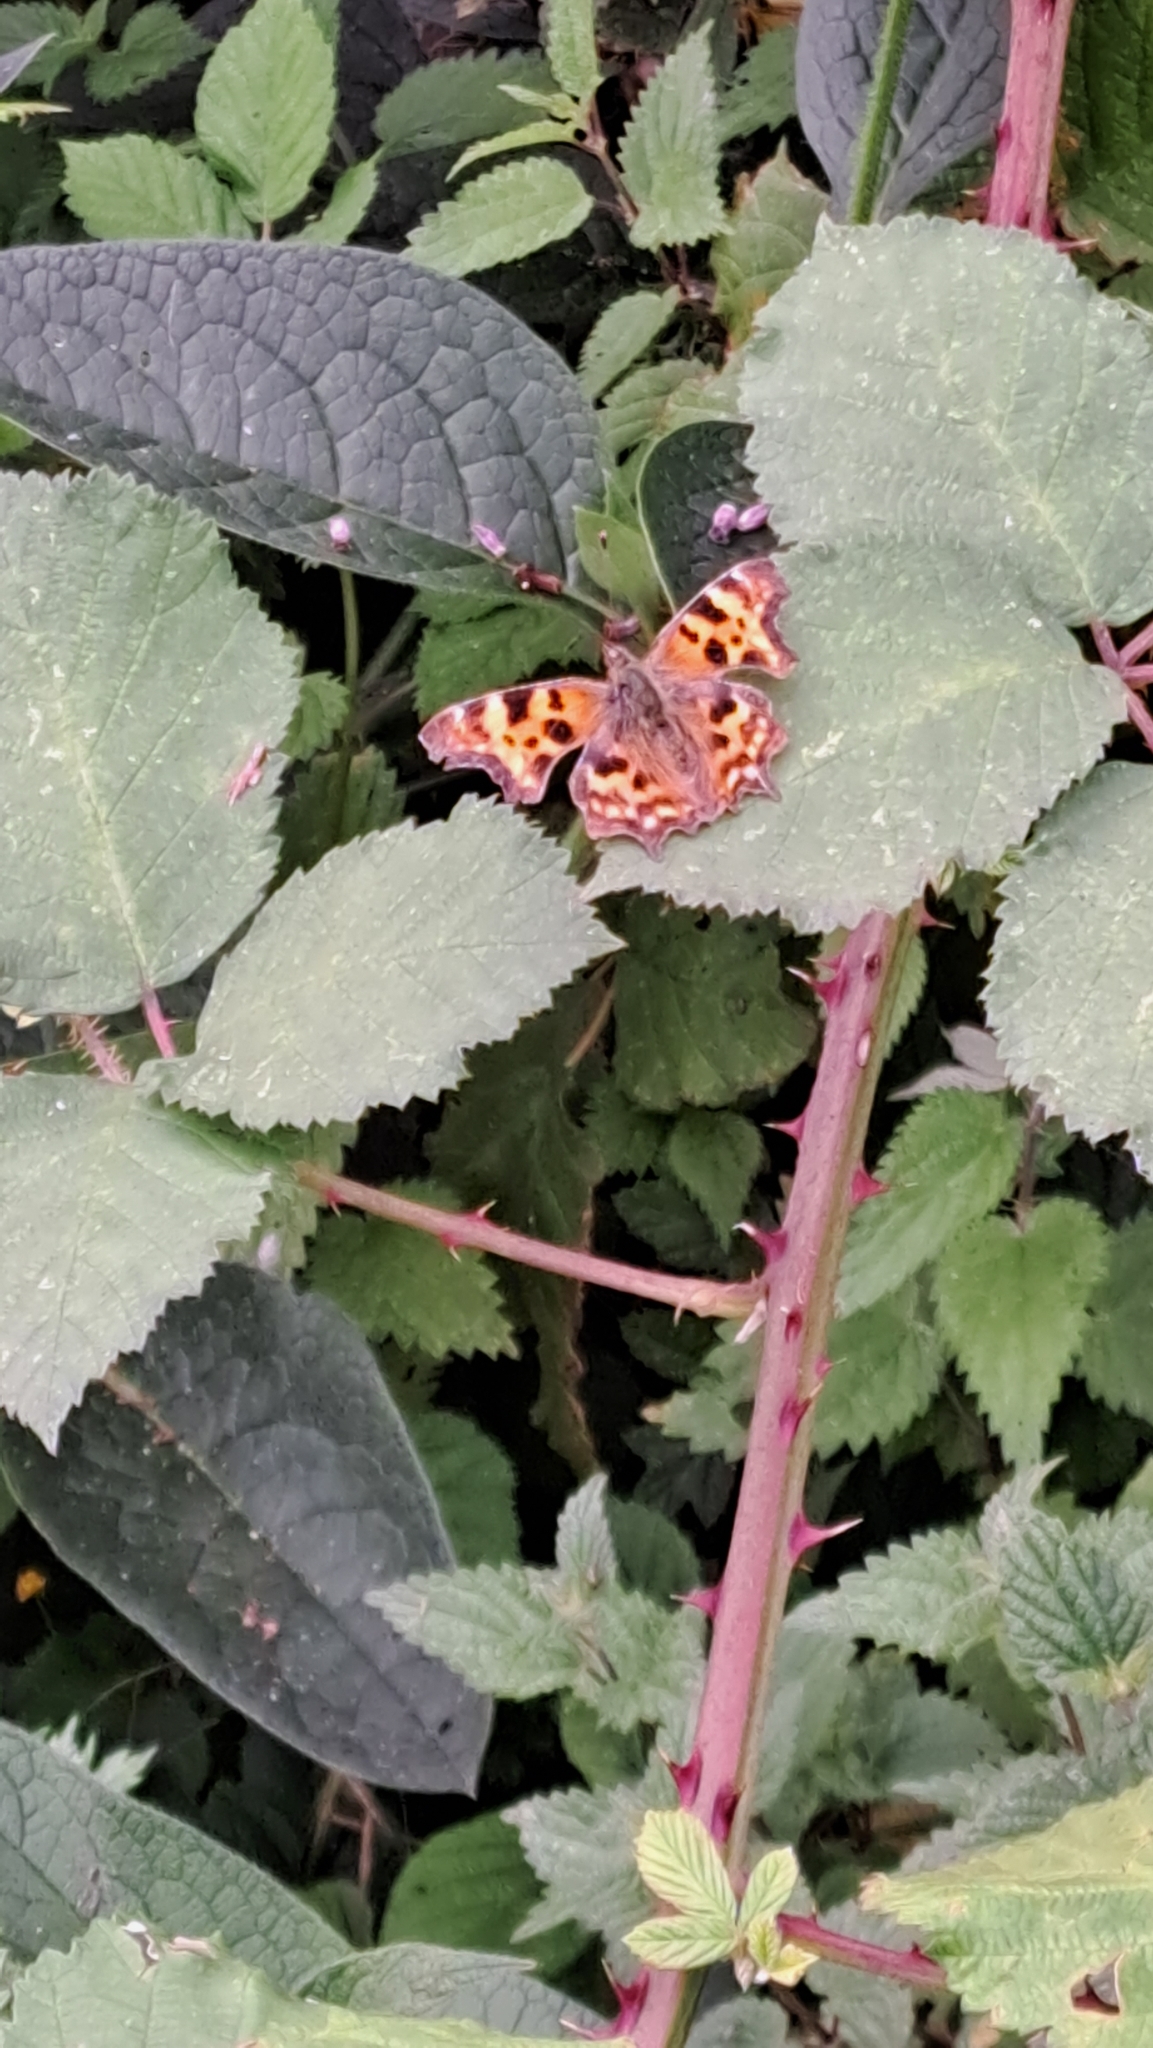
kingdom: Animalia
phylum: Arthropoda
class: Insecta
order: Lepidoptera
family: Nymphalidae
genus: Polygonia
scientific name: Polygonia c-album
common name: Comma
